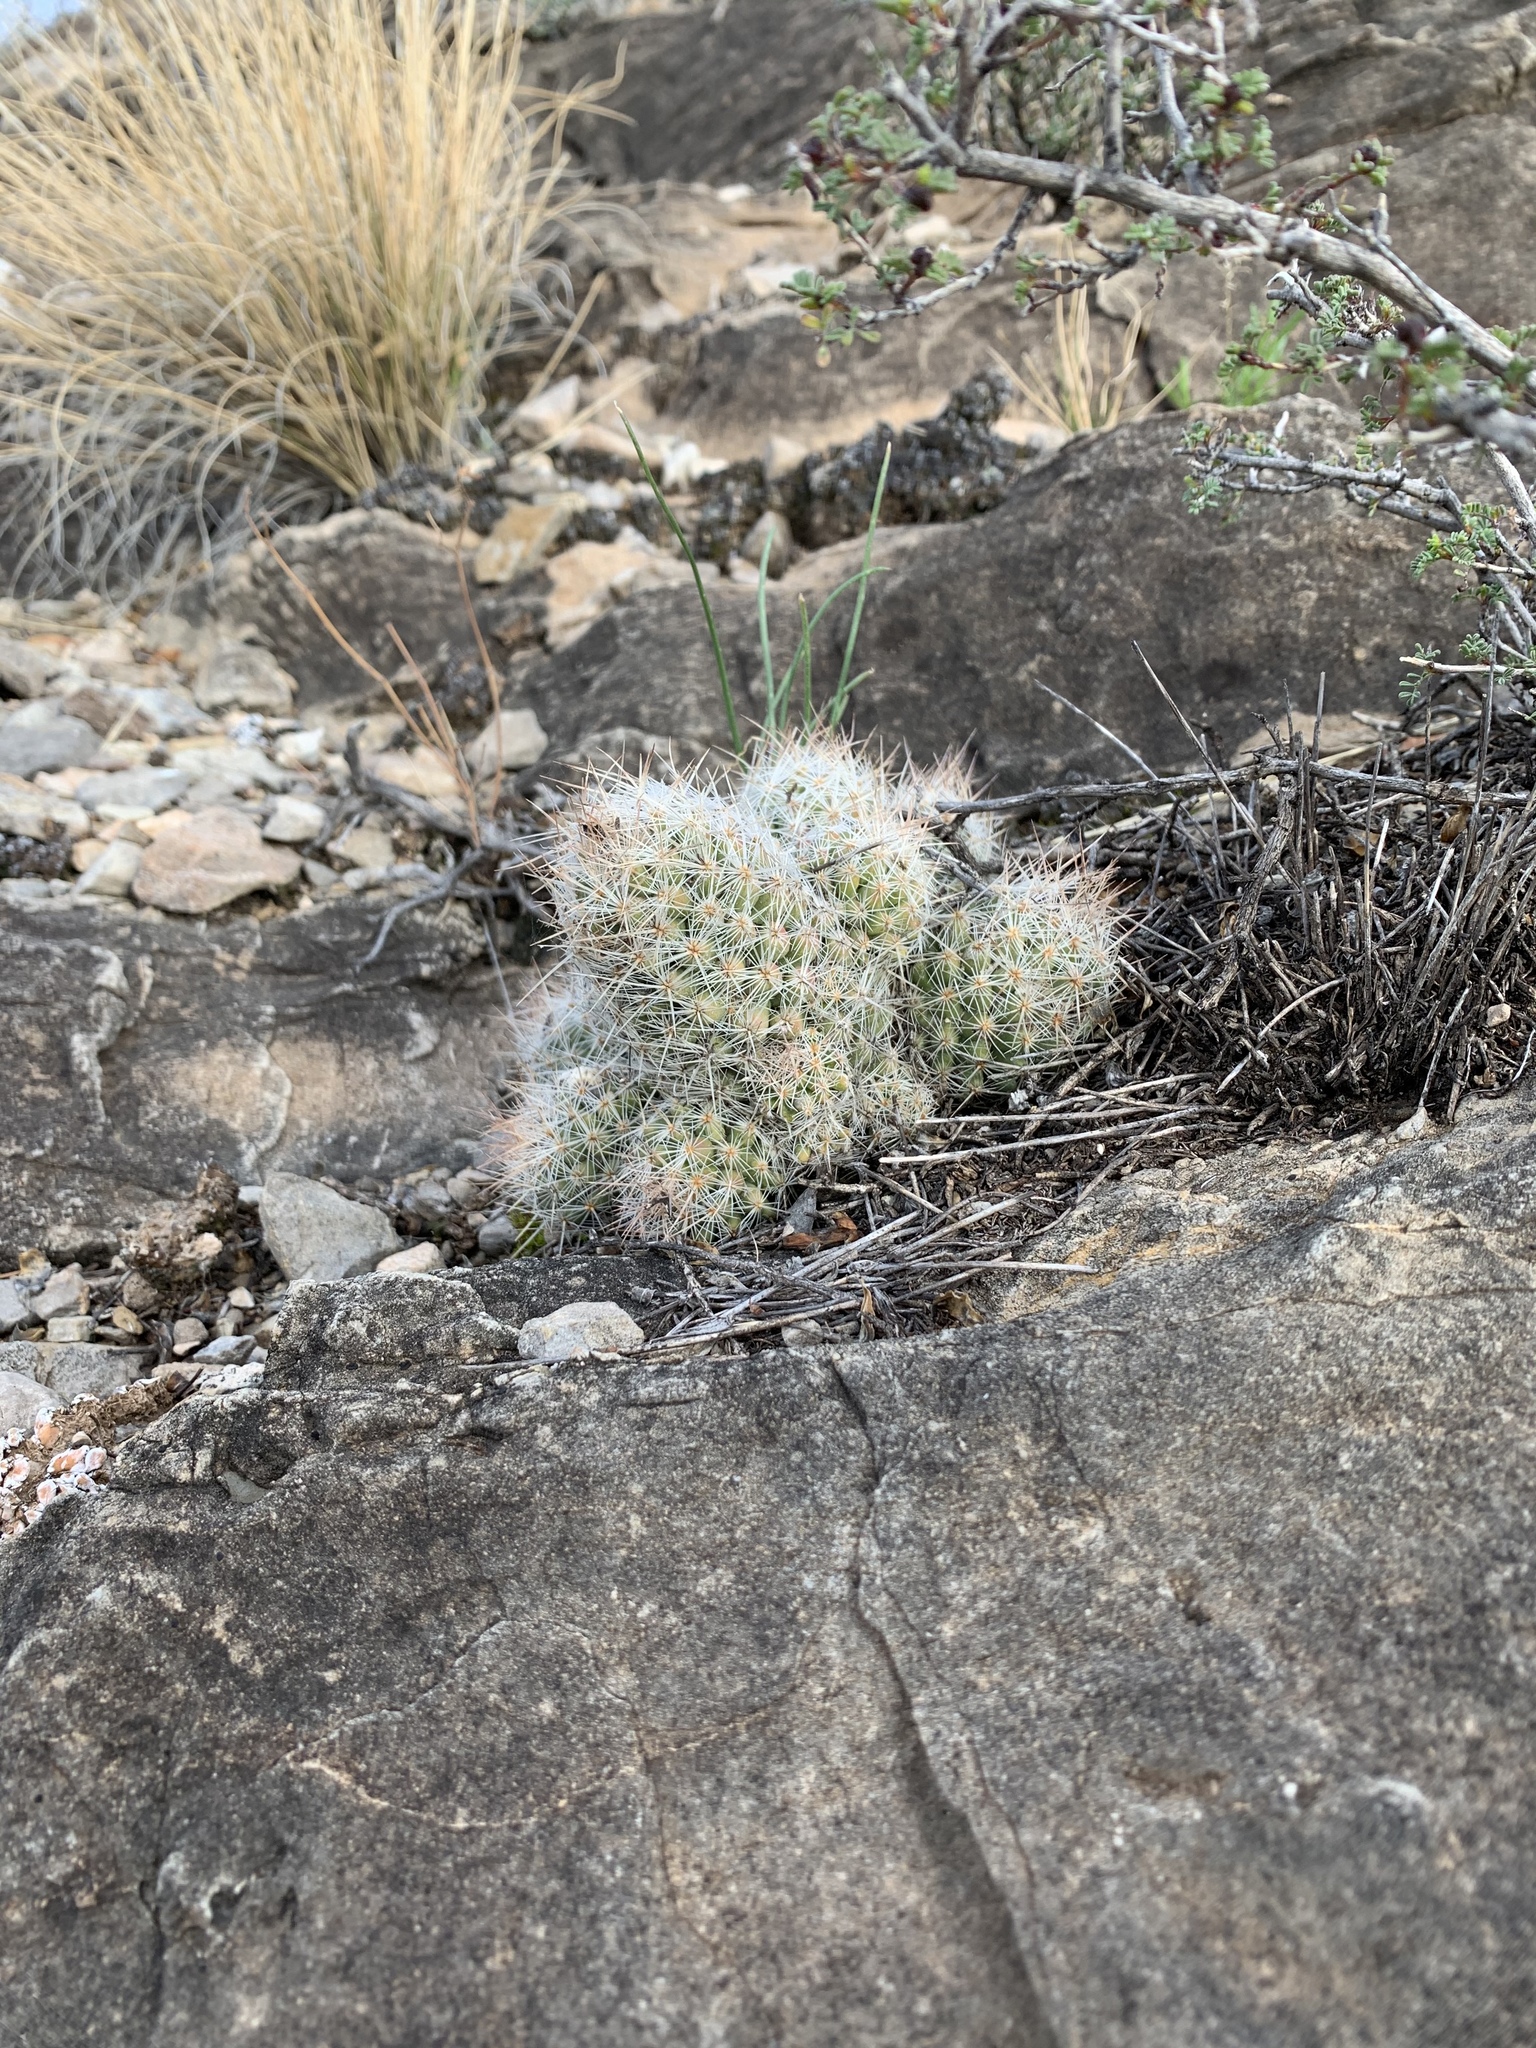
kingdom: Plantae
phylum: Tracheophyta
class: Magnoliopsida
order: Caryophyllales
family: Cactaceae
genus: Pelecyphora
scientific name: Pelecyphora tuberculosa
